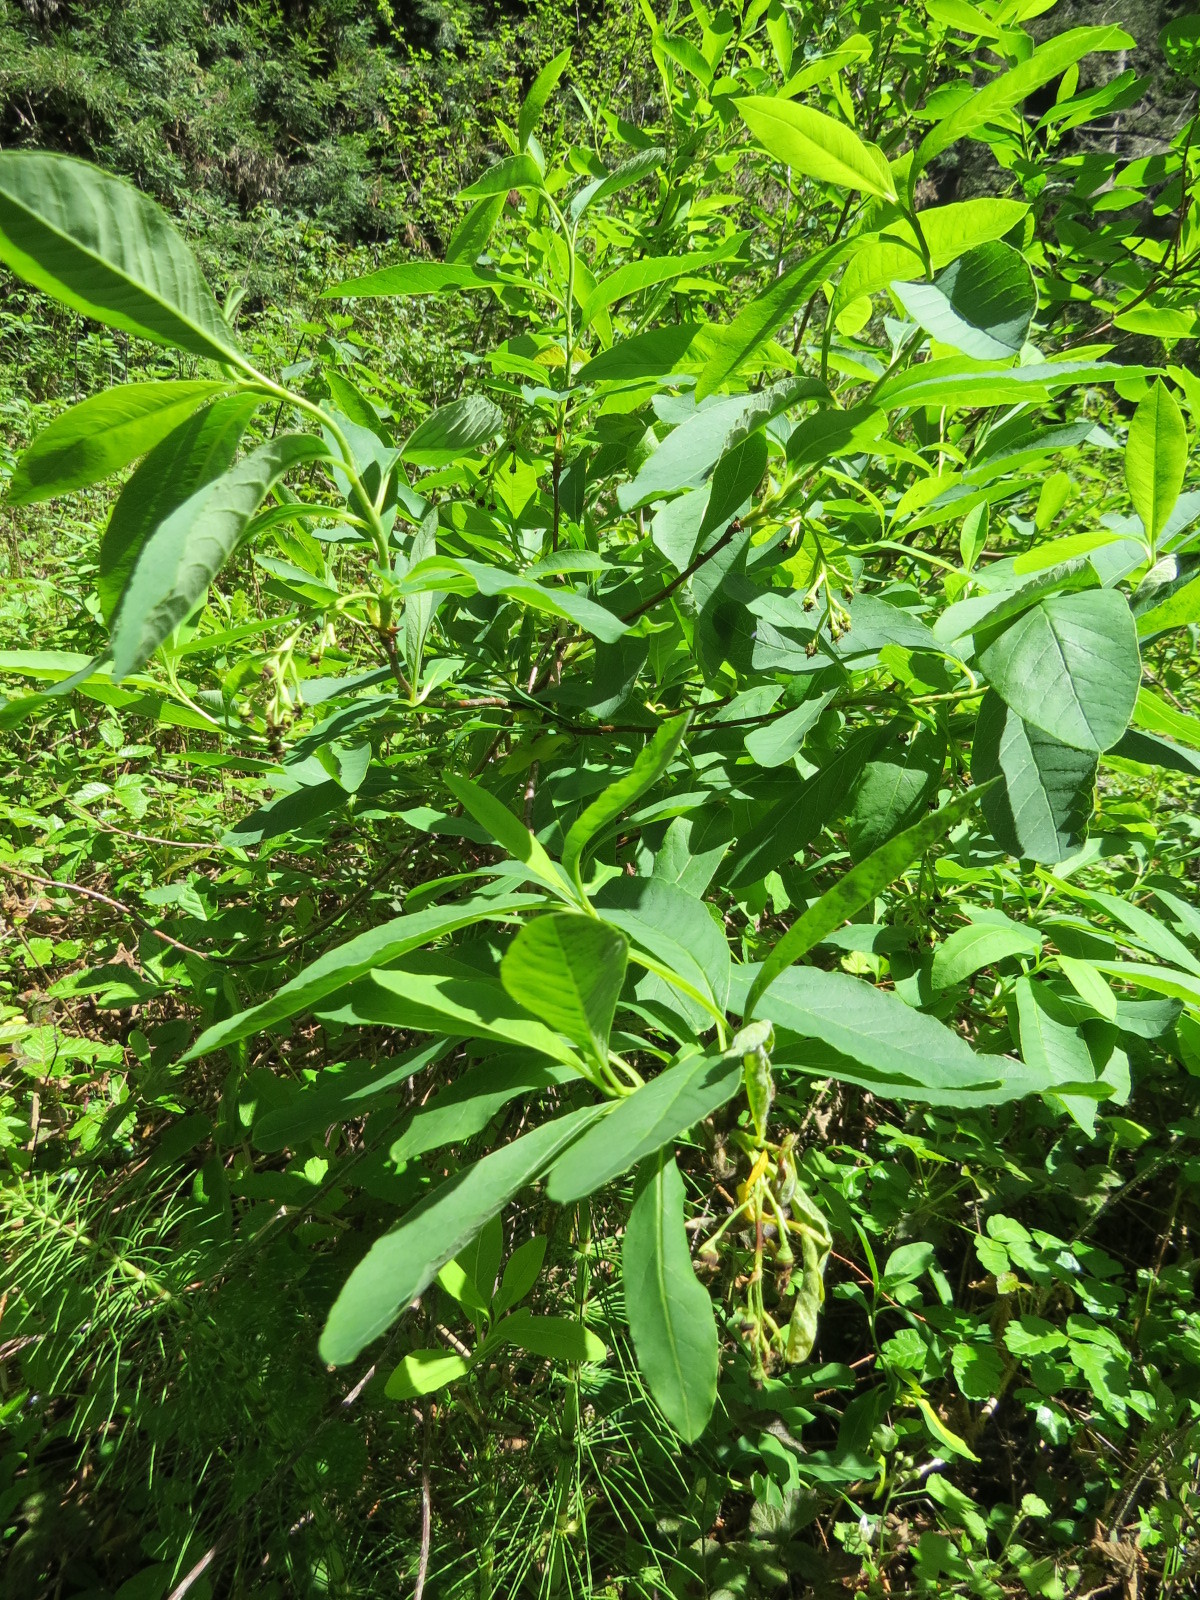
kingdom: Plantae
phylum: Tracheophyta
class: Magnoliopsida
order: Rosales
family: Rosaceae
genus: Oemleria
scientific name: Oemleria cerasiformis
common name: Osoberry
